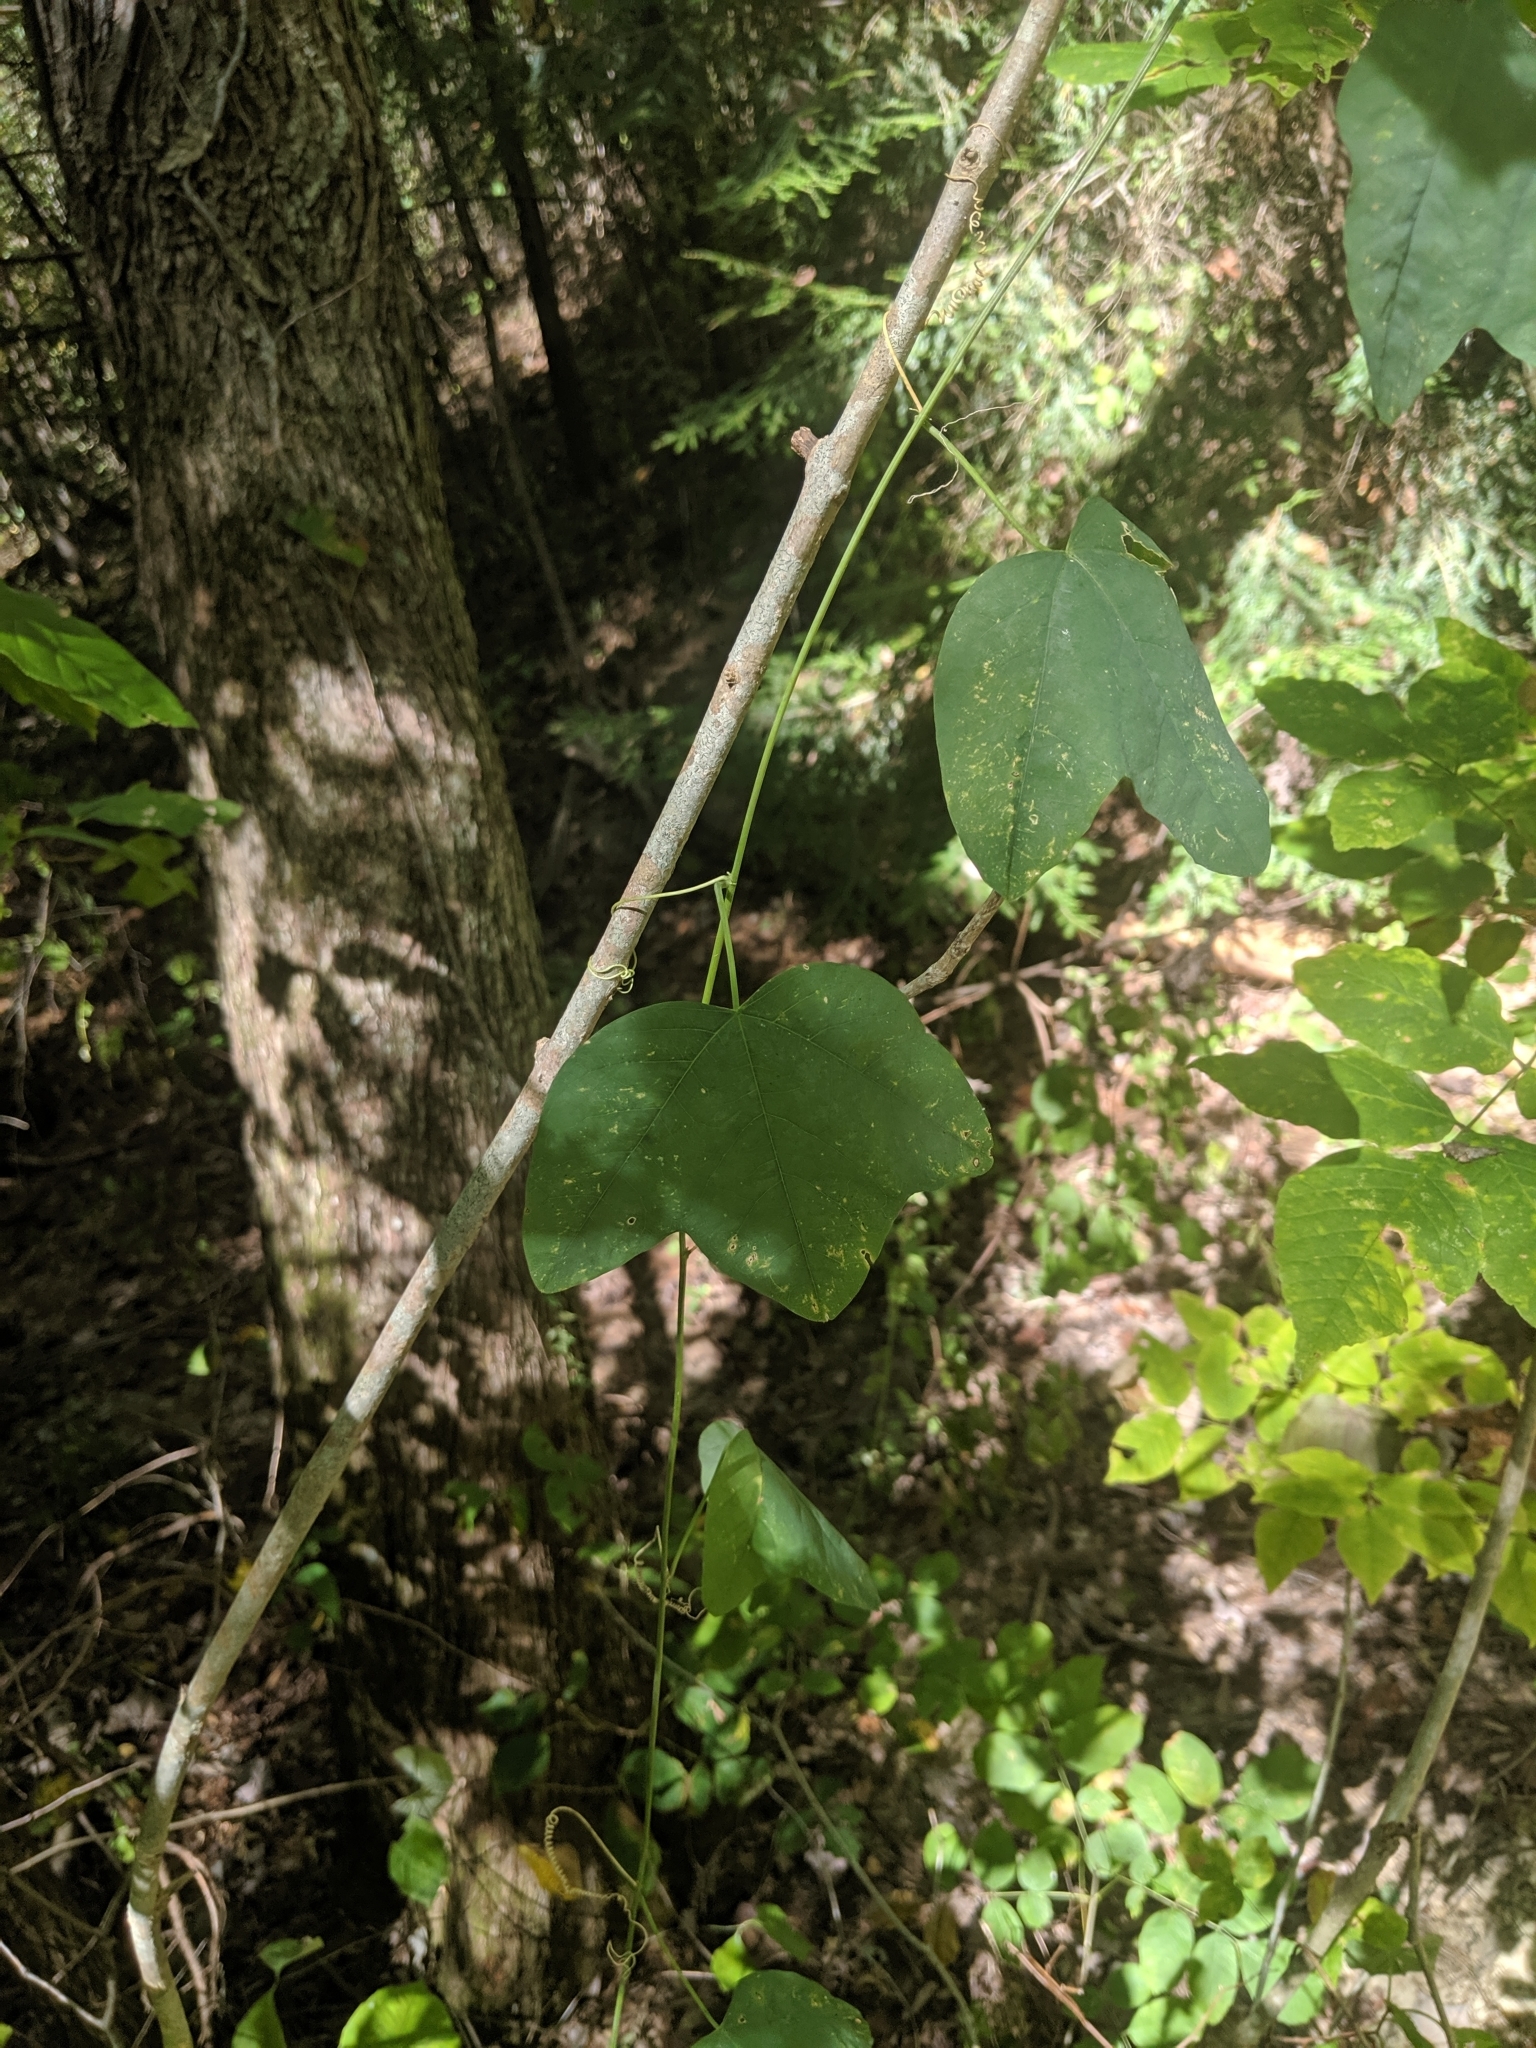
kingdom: Plantae
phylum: Tracheophyta
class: Magnoliopsida
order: Malpighiales
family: Passifloraceae
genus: Passiflora
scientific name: Passiflora lutea
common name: Yellow passionflower
